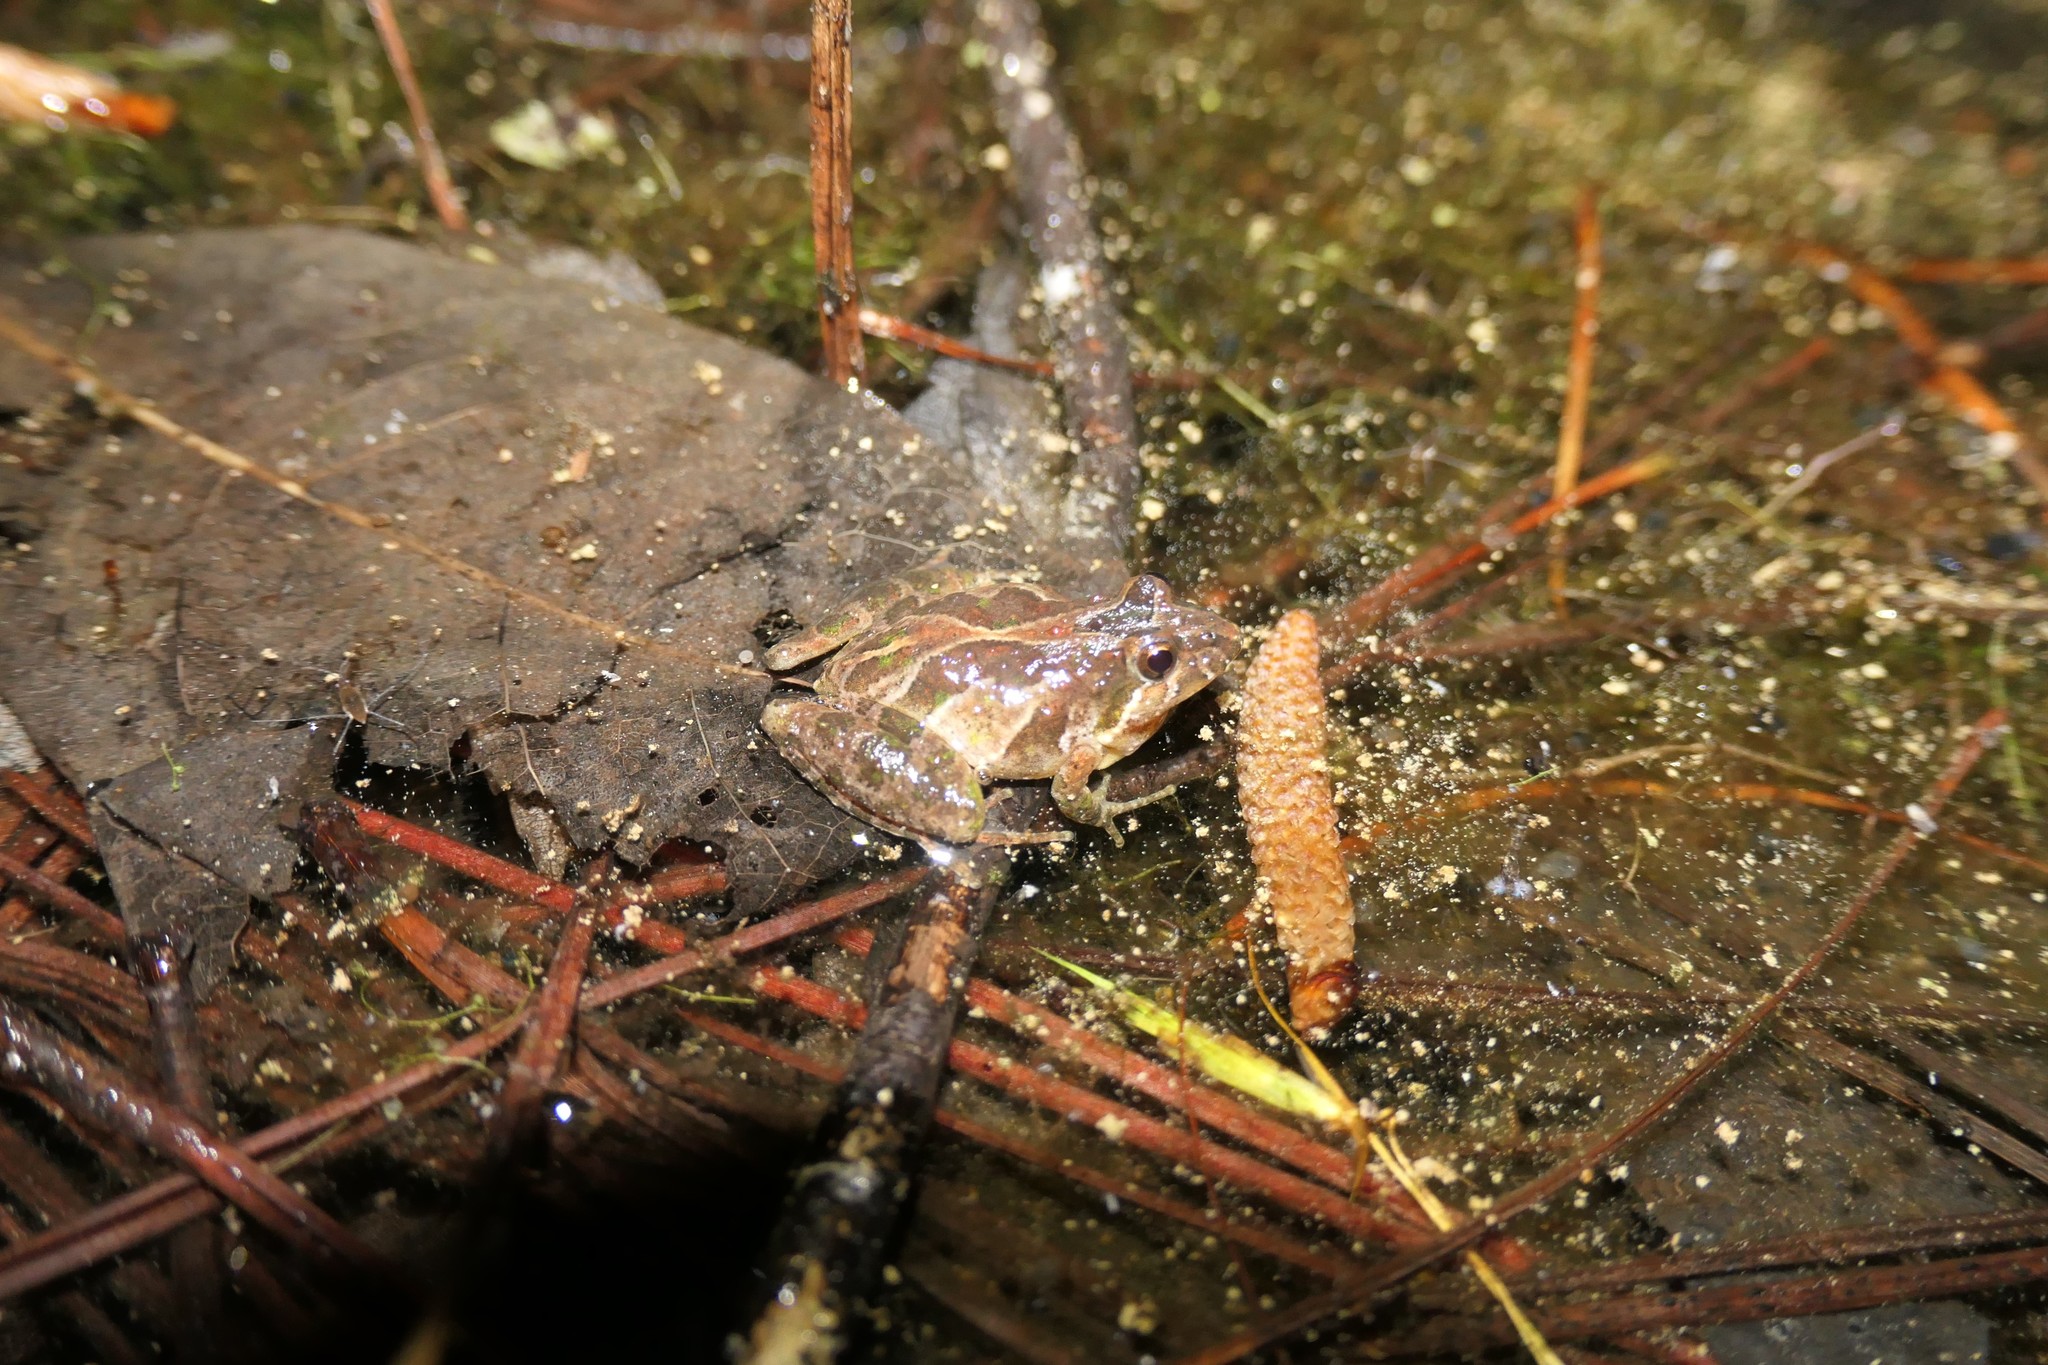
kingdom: Animalia
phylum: Chordata
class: Amphibia
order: Anura
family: Hylidae
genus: Acris
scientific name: Acris gryllus
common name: Southern cricket frog
